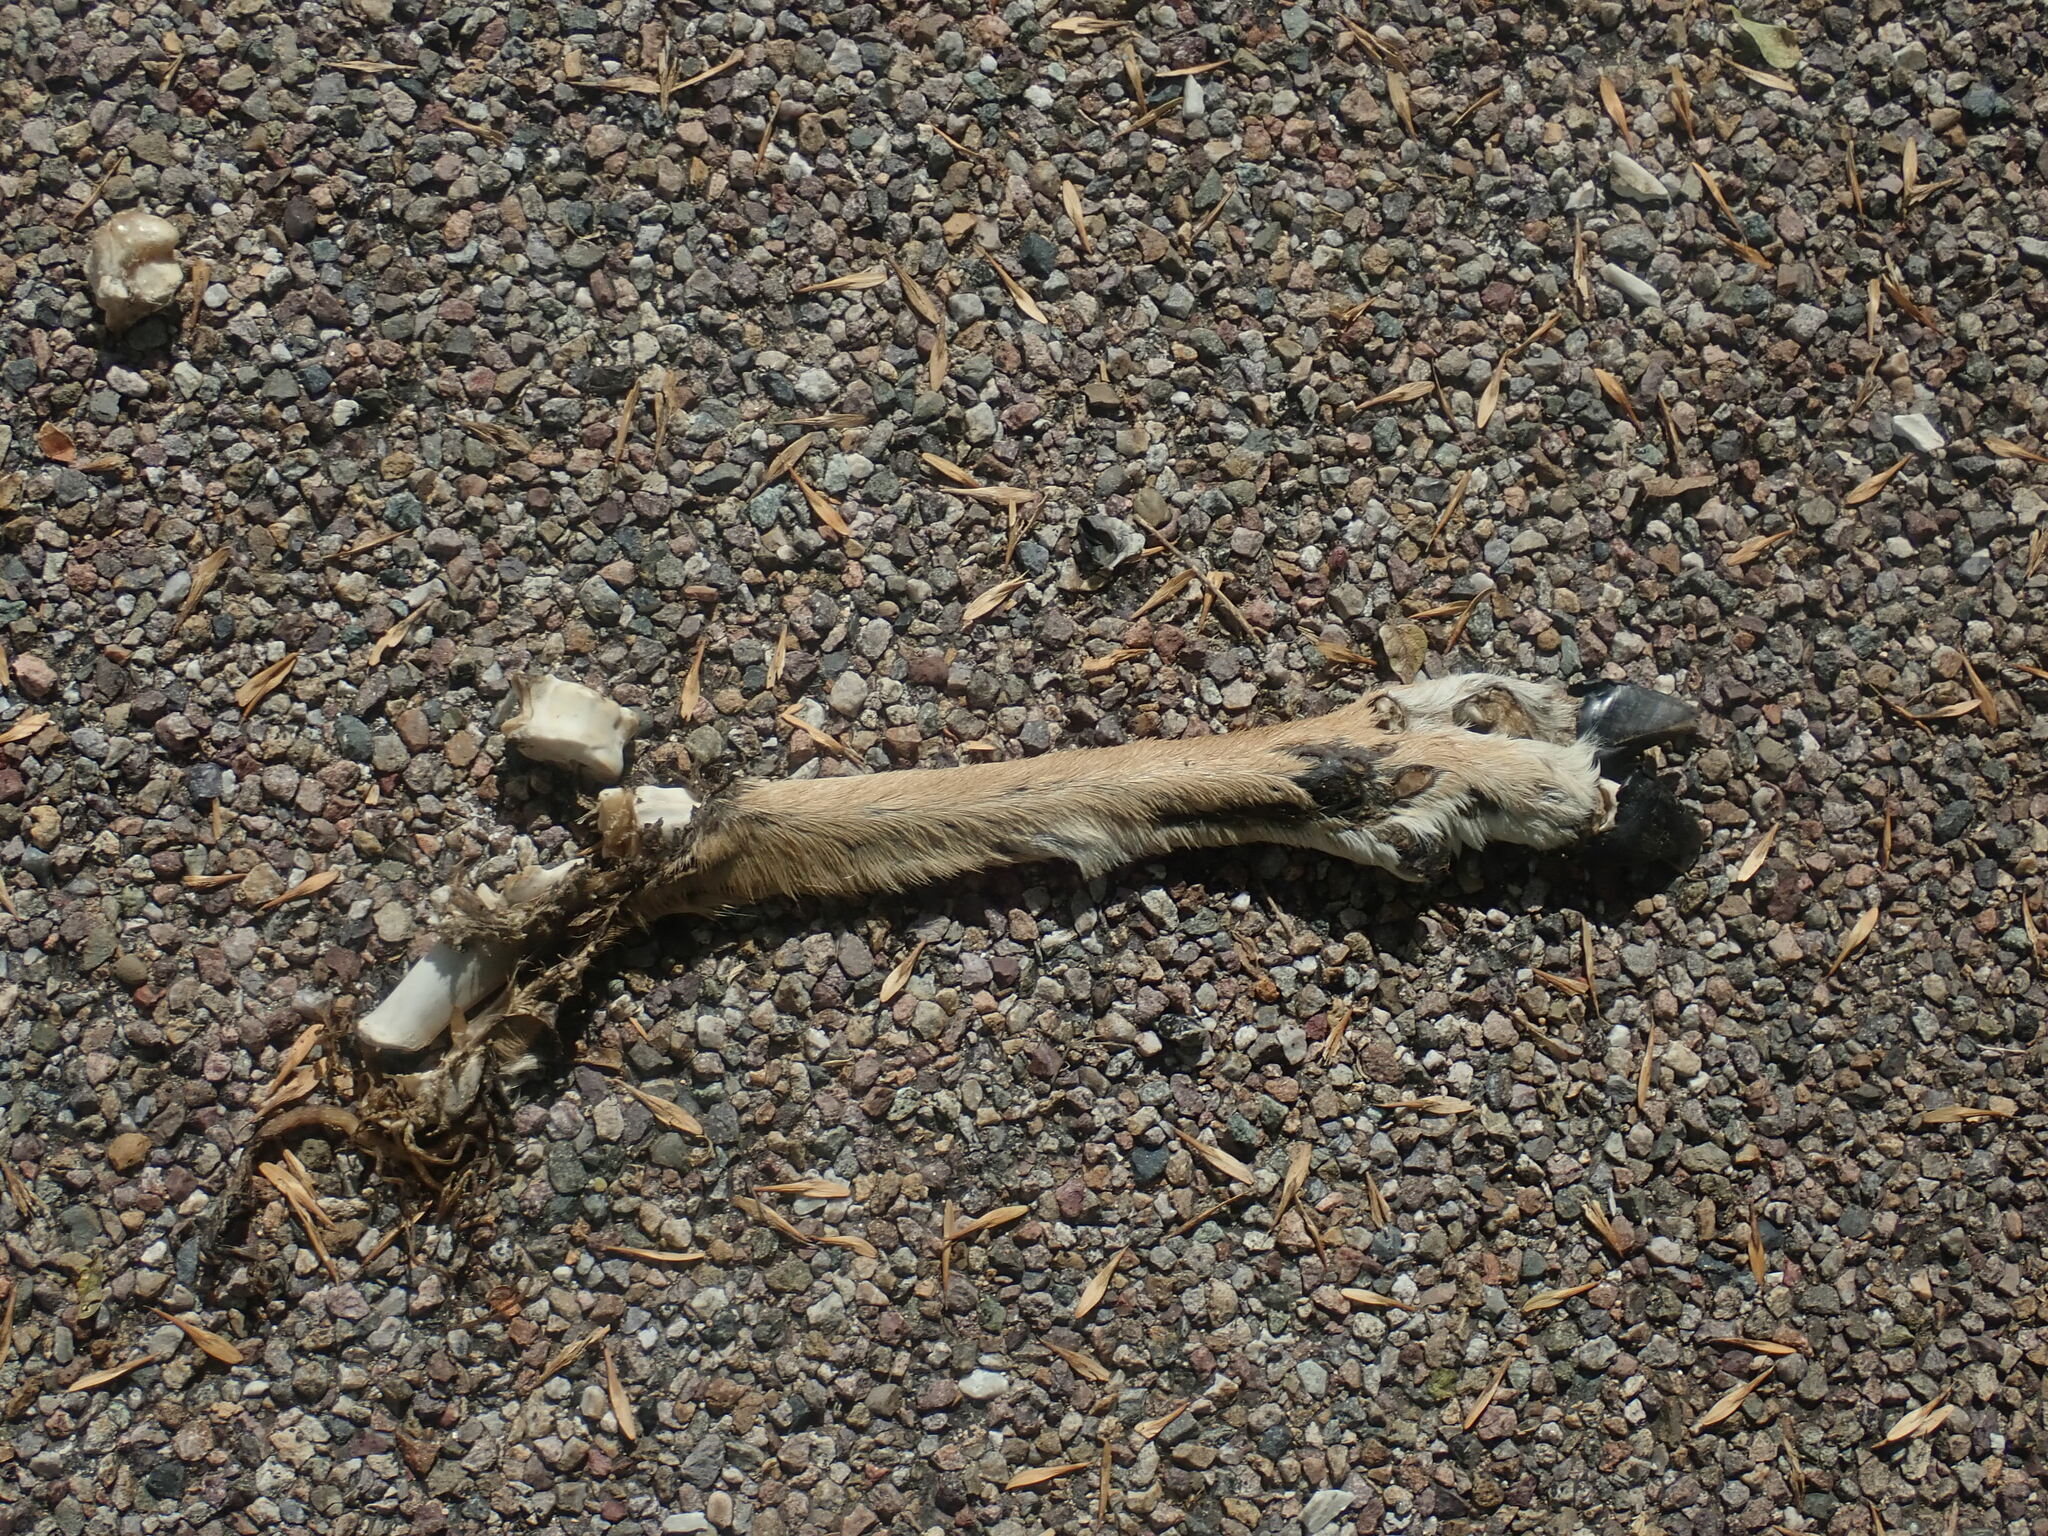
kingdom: Animalia
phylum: Chordata
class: Mammalia
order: Artiodactyla
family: Cervidae
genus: Odocoileus
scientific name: Odocoileus virginianus
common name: White-tailed deer
